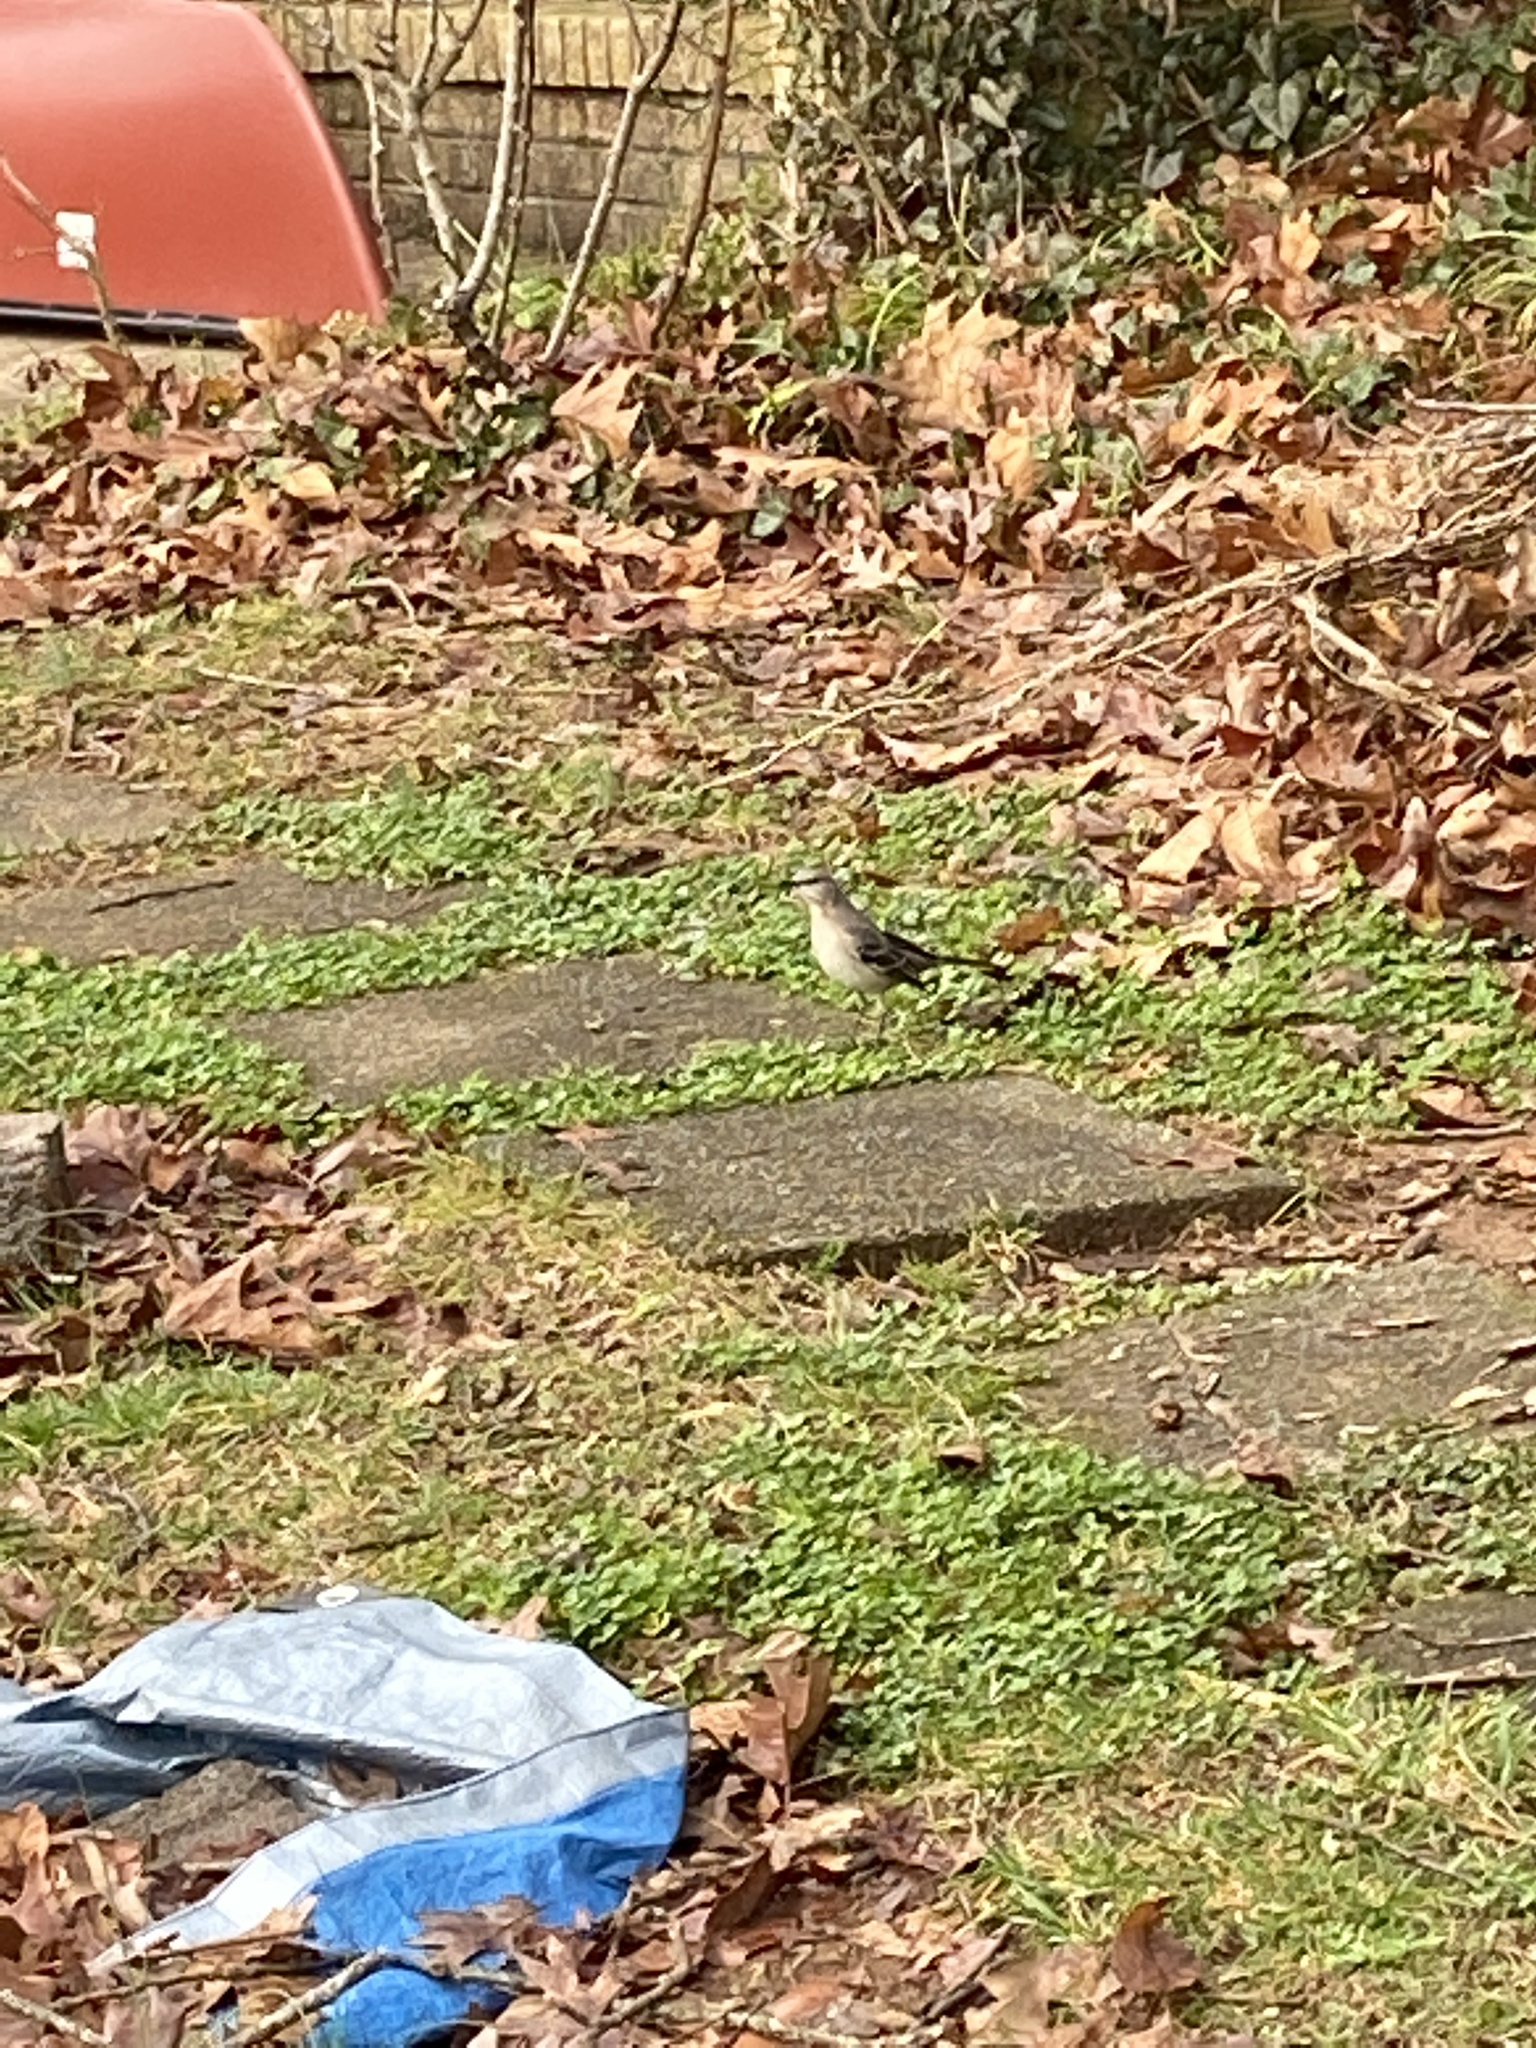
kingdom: Animalia
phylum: Chordata
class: Aves
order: Passeriformes
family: Mimidae
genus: Mimus
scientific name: Mimus polyglottos
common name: Northern mockingbird
